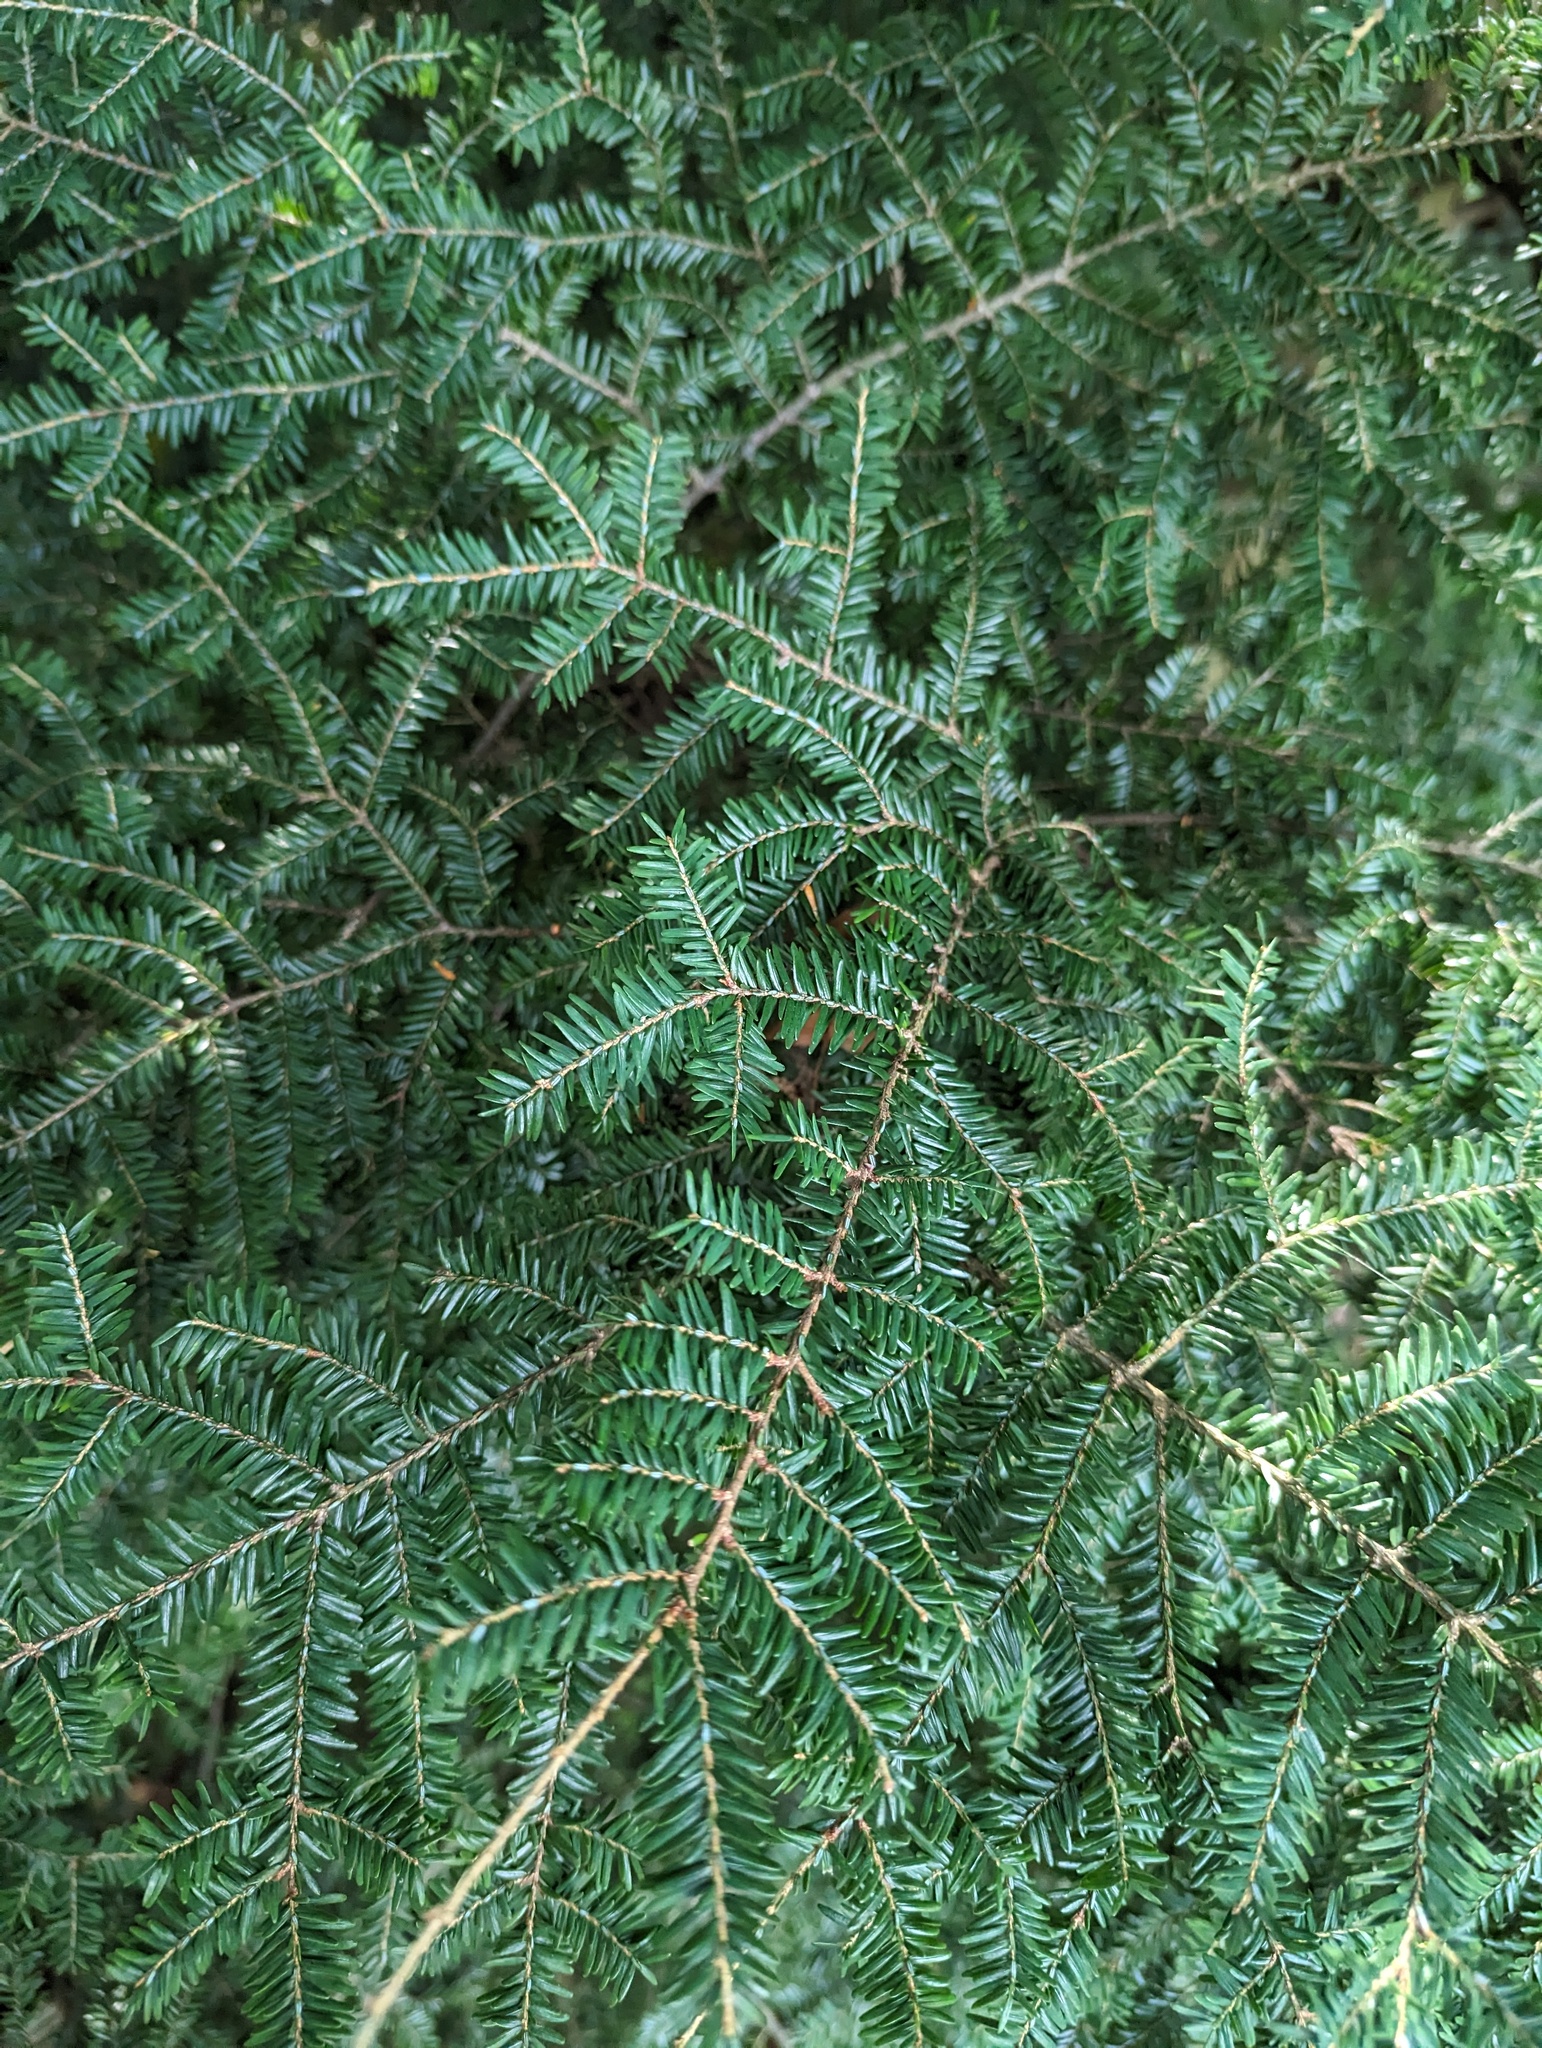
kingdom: Plantae
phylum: Tracheophyta
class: Pinopsida
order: Pinales
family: Pinaceae
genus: Tsuga
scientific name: Tsuga canadensis
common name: Eastern hemlock
